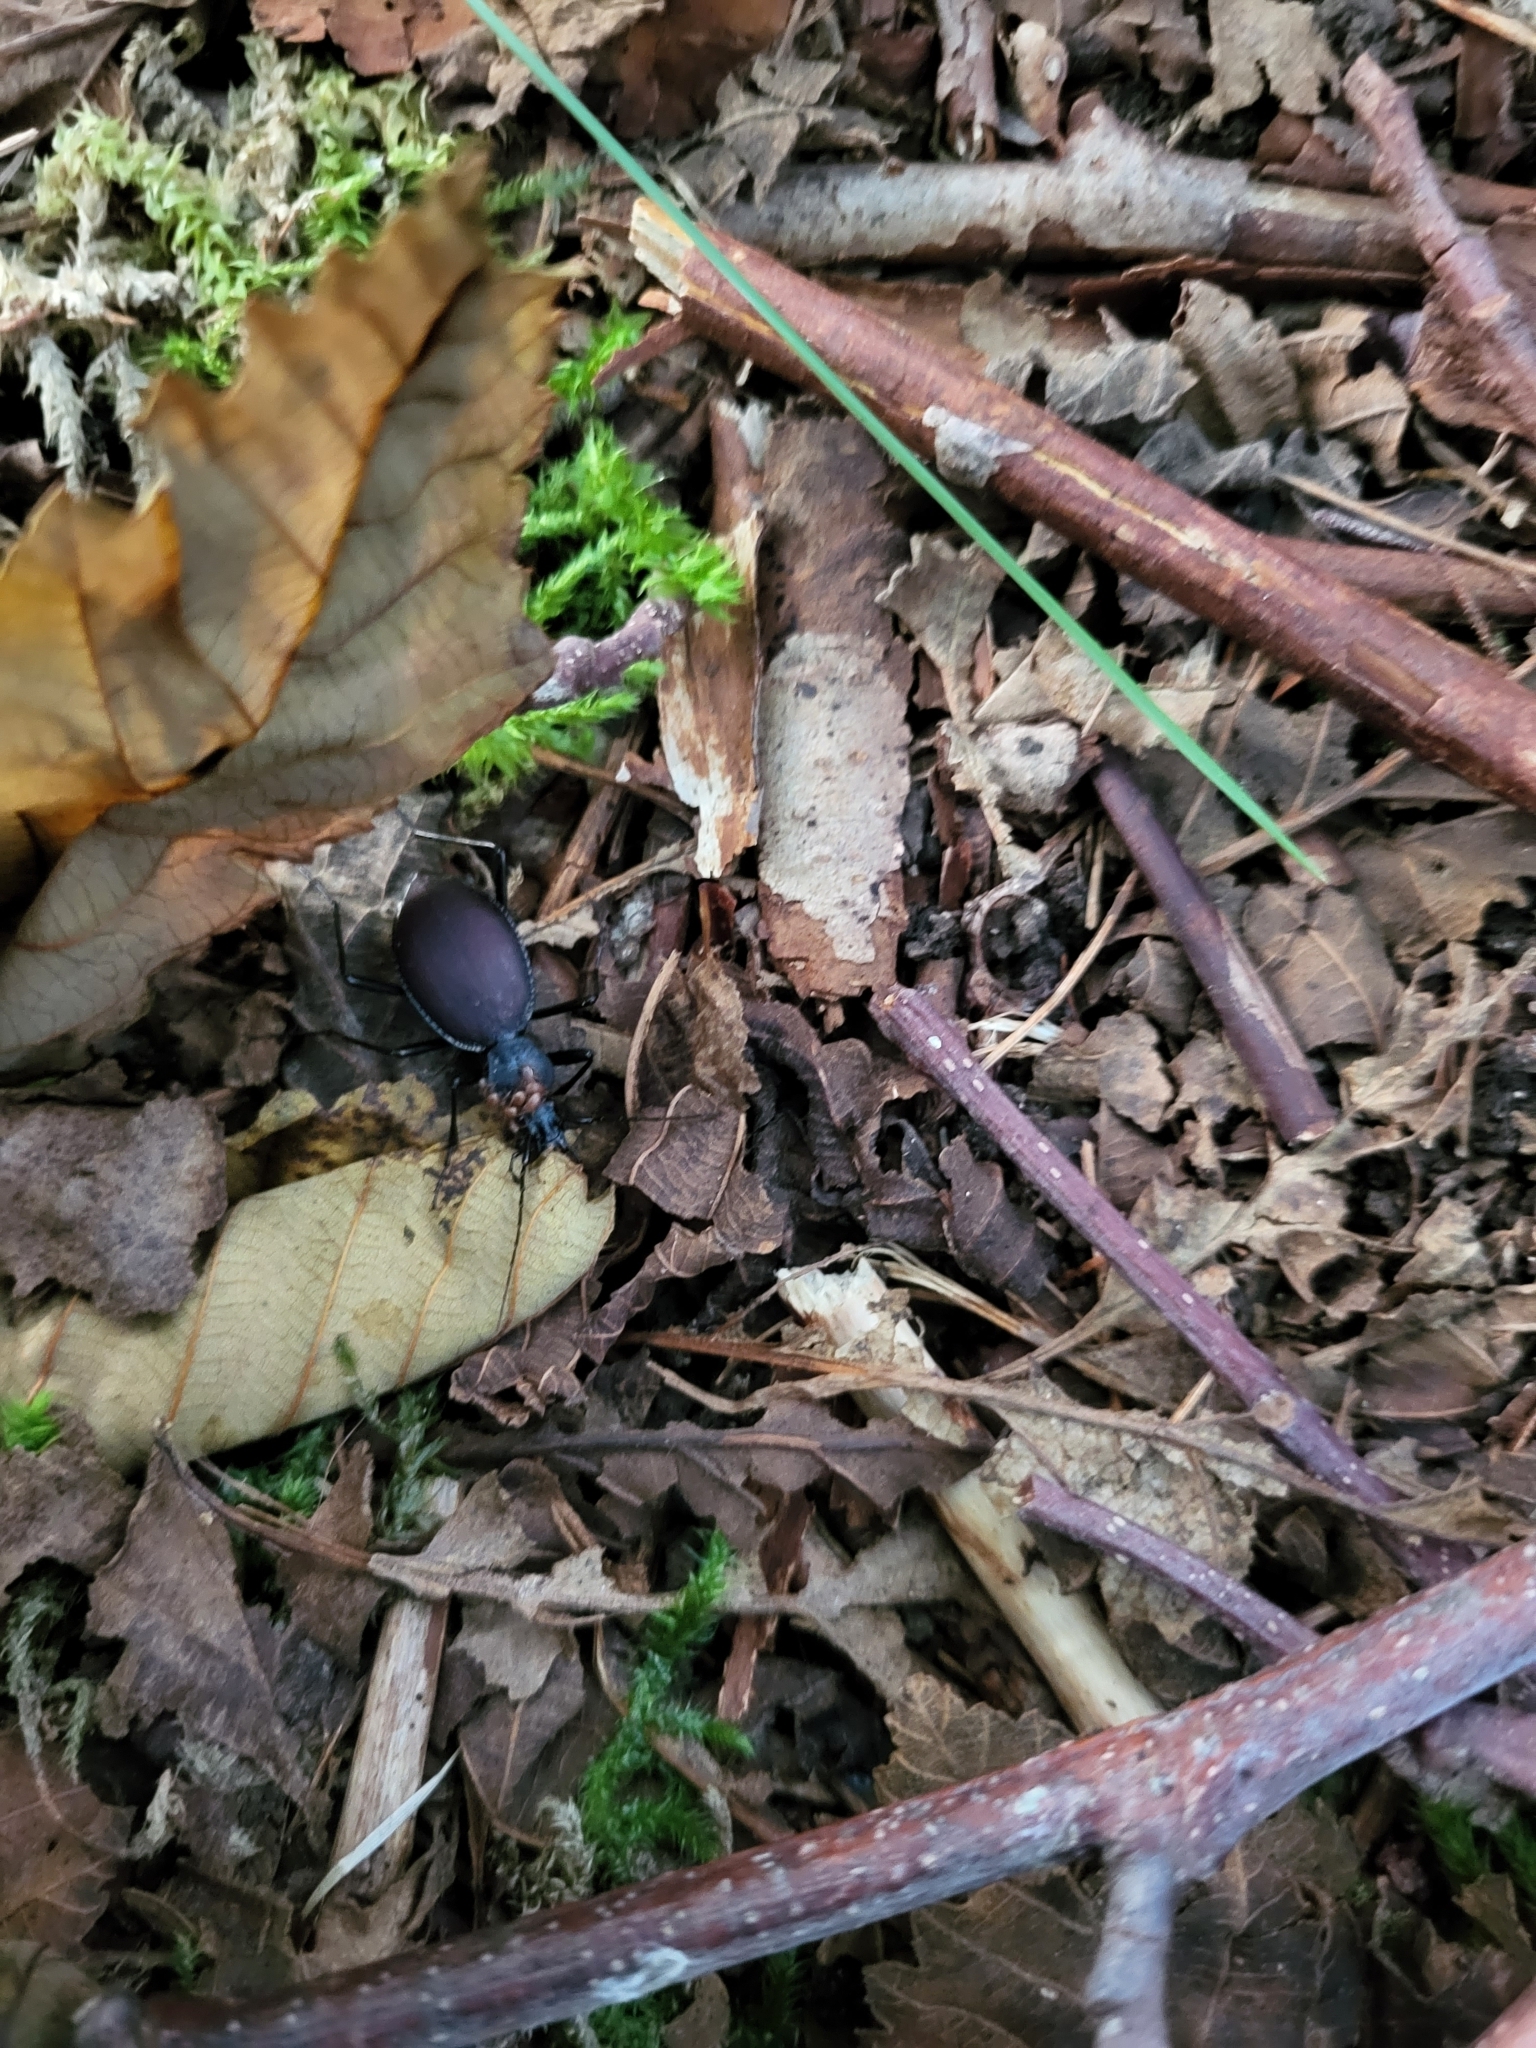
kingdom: Animalia
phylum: Arthropoda
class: Insecta
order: Coleoptera
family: Carabidae
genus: Scaphinotus
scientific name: Scaphinotus angusticollis
